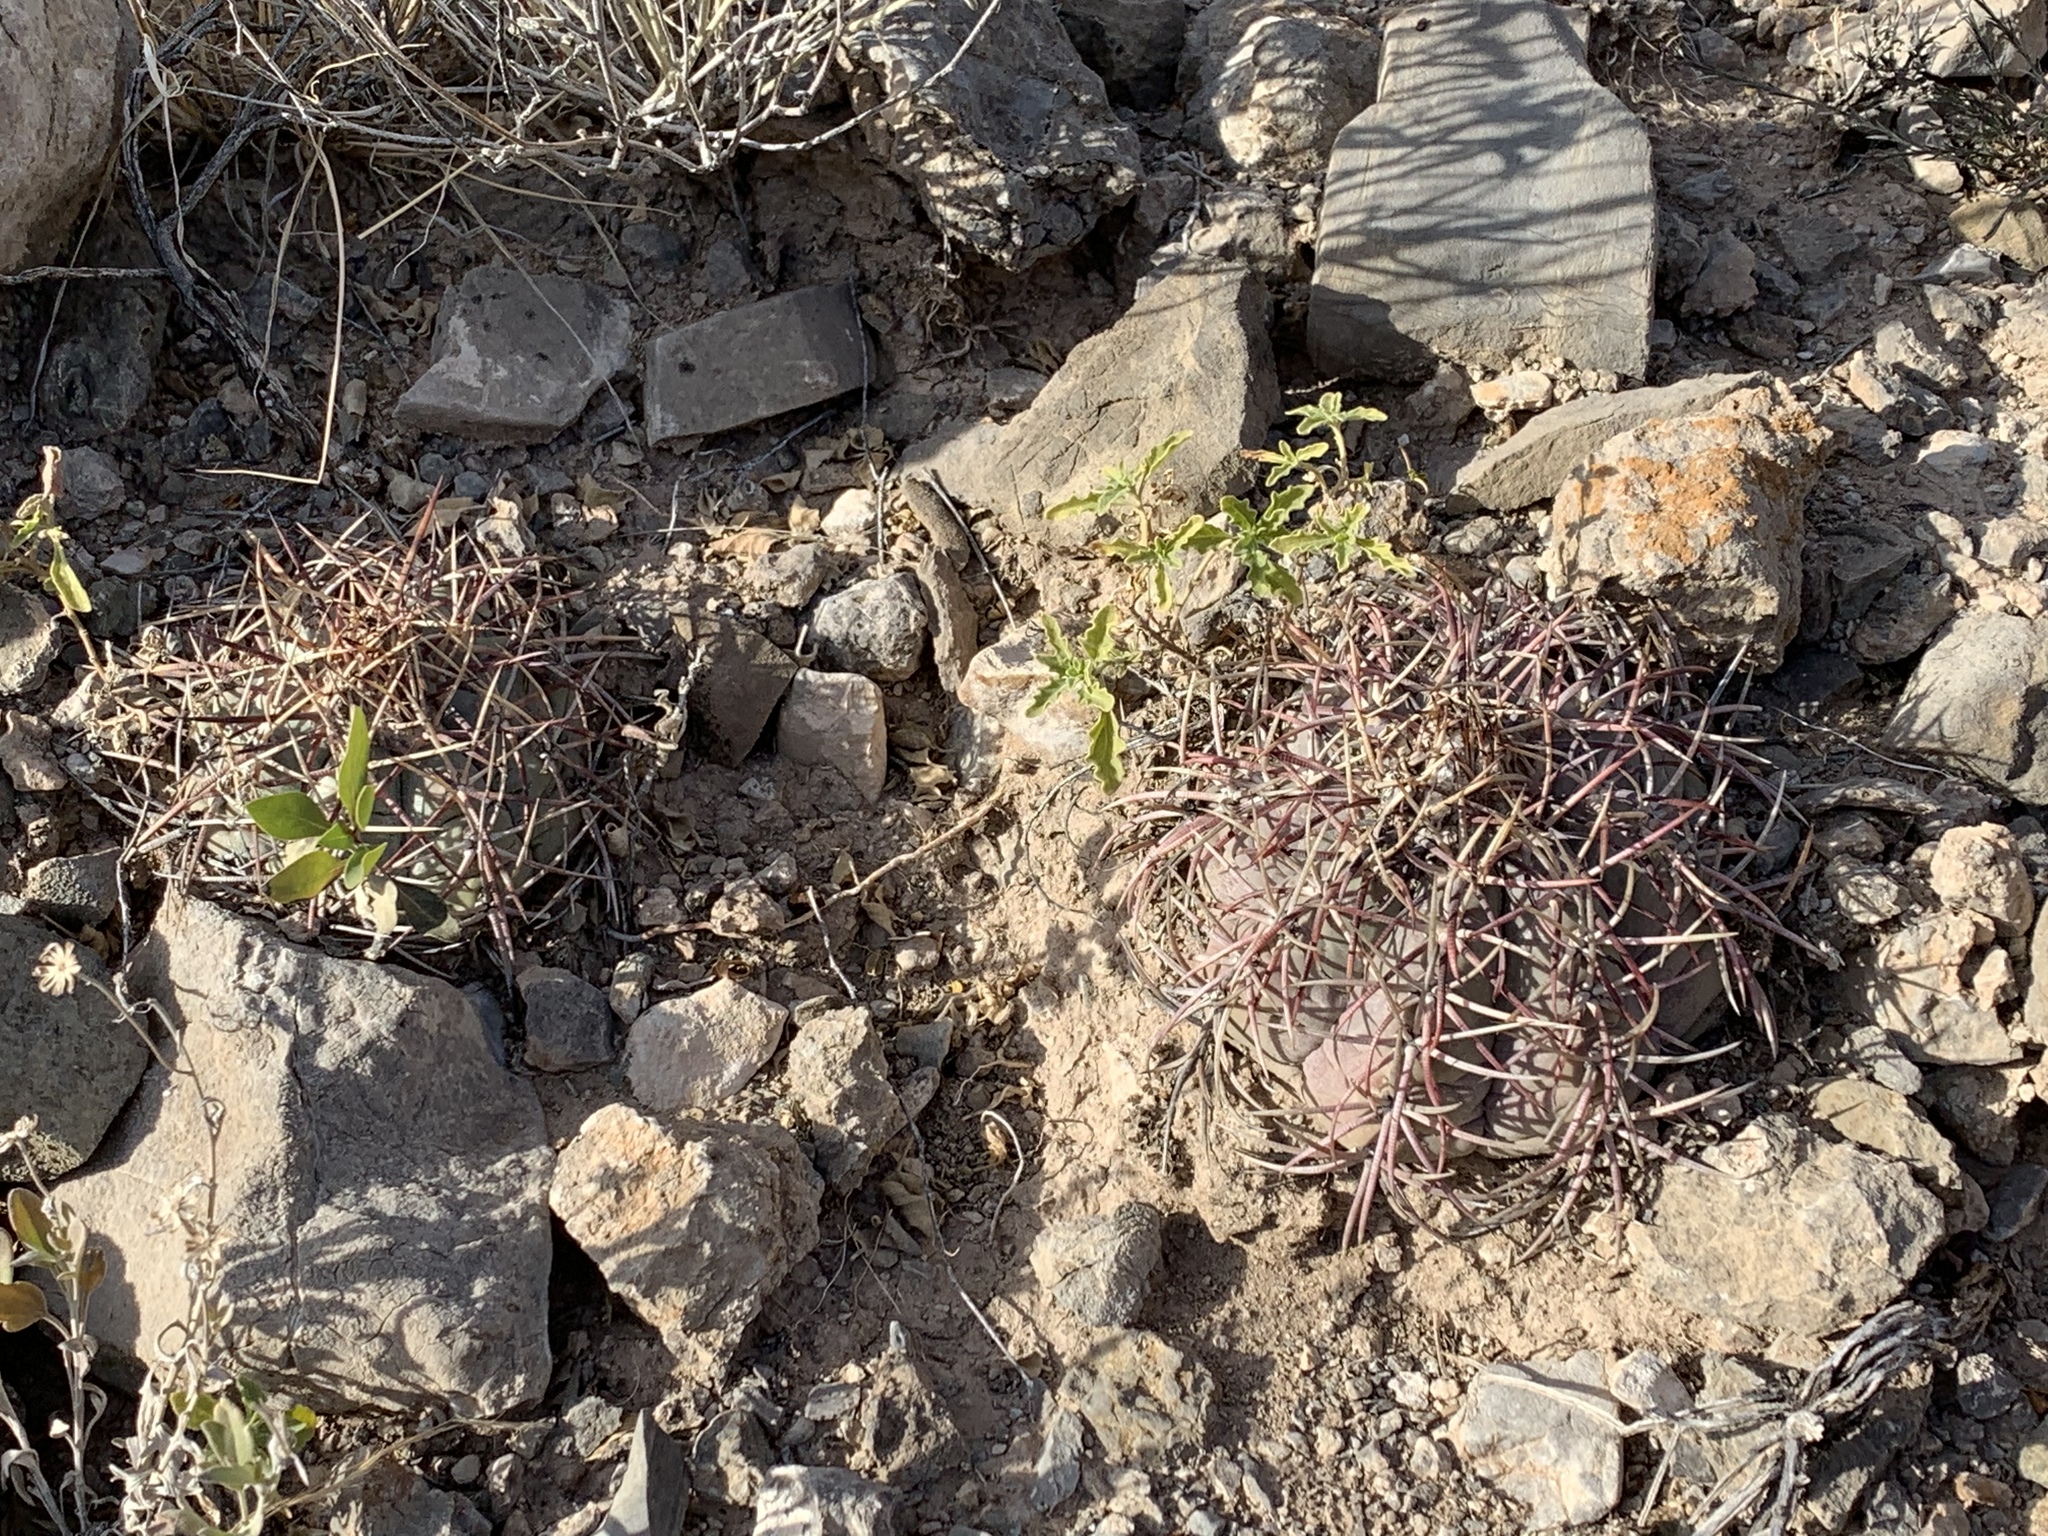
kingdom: Plantae
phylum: Tracheophyta
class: Magnoliopsida
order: Caryophyllales
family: Cactaceae
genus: Echinocactus
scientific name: Echinocactus horizonthalonius
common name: Devilshead
